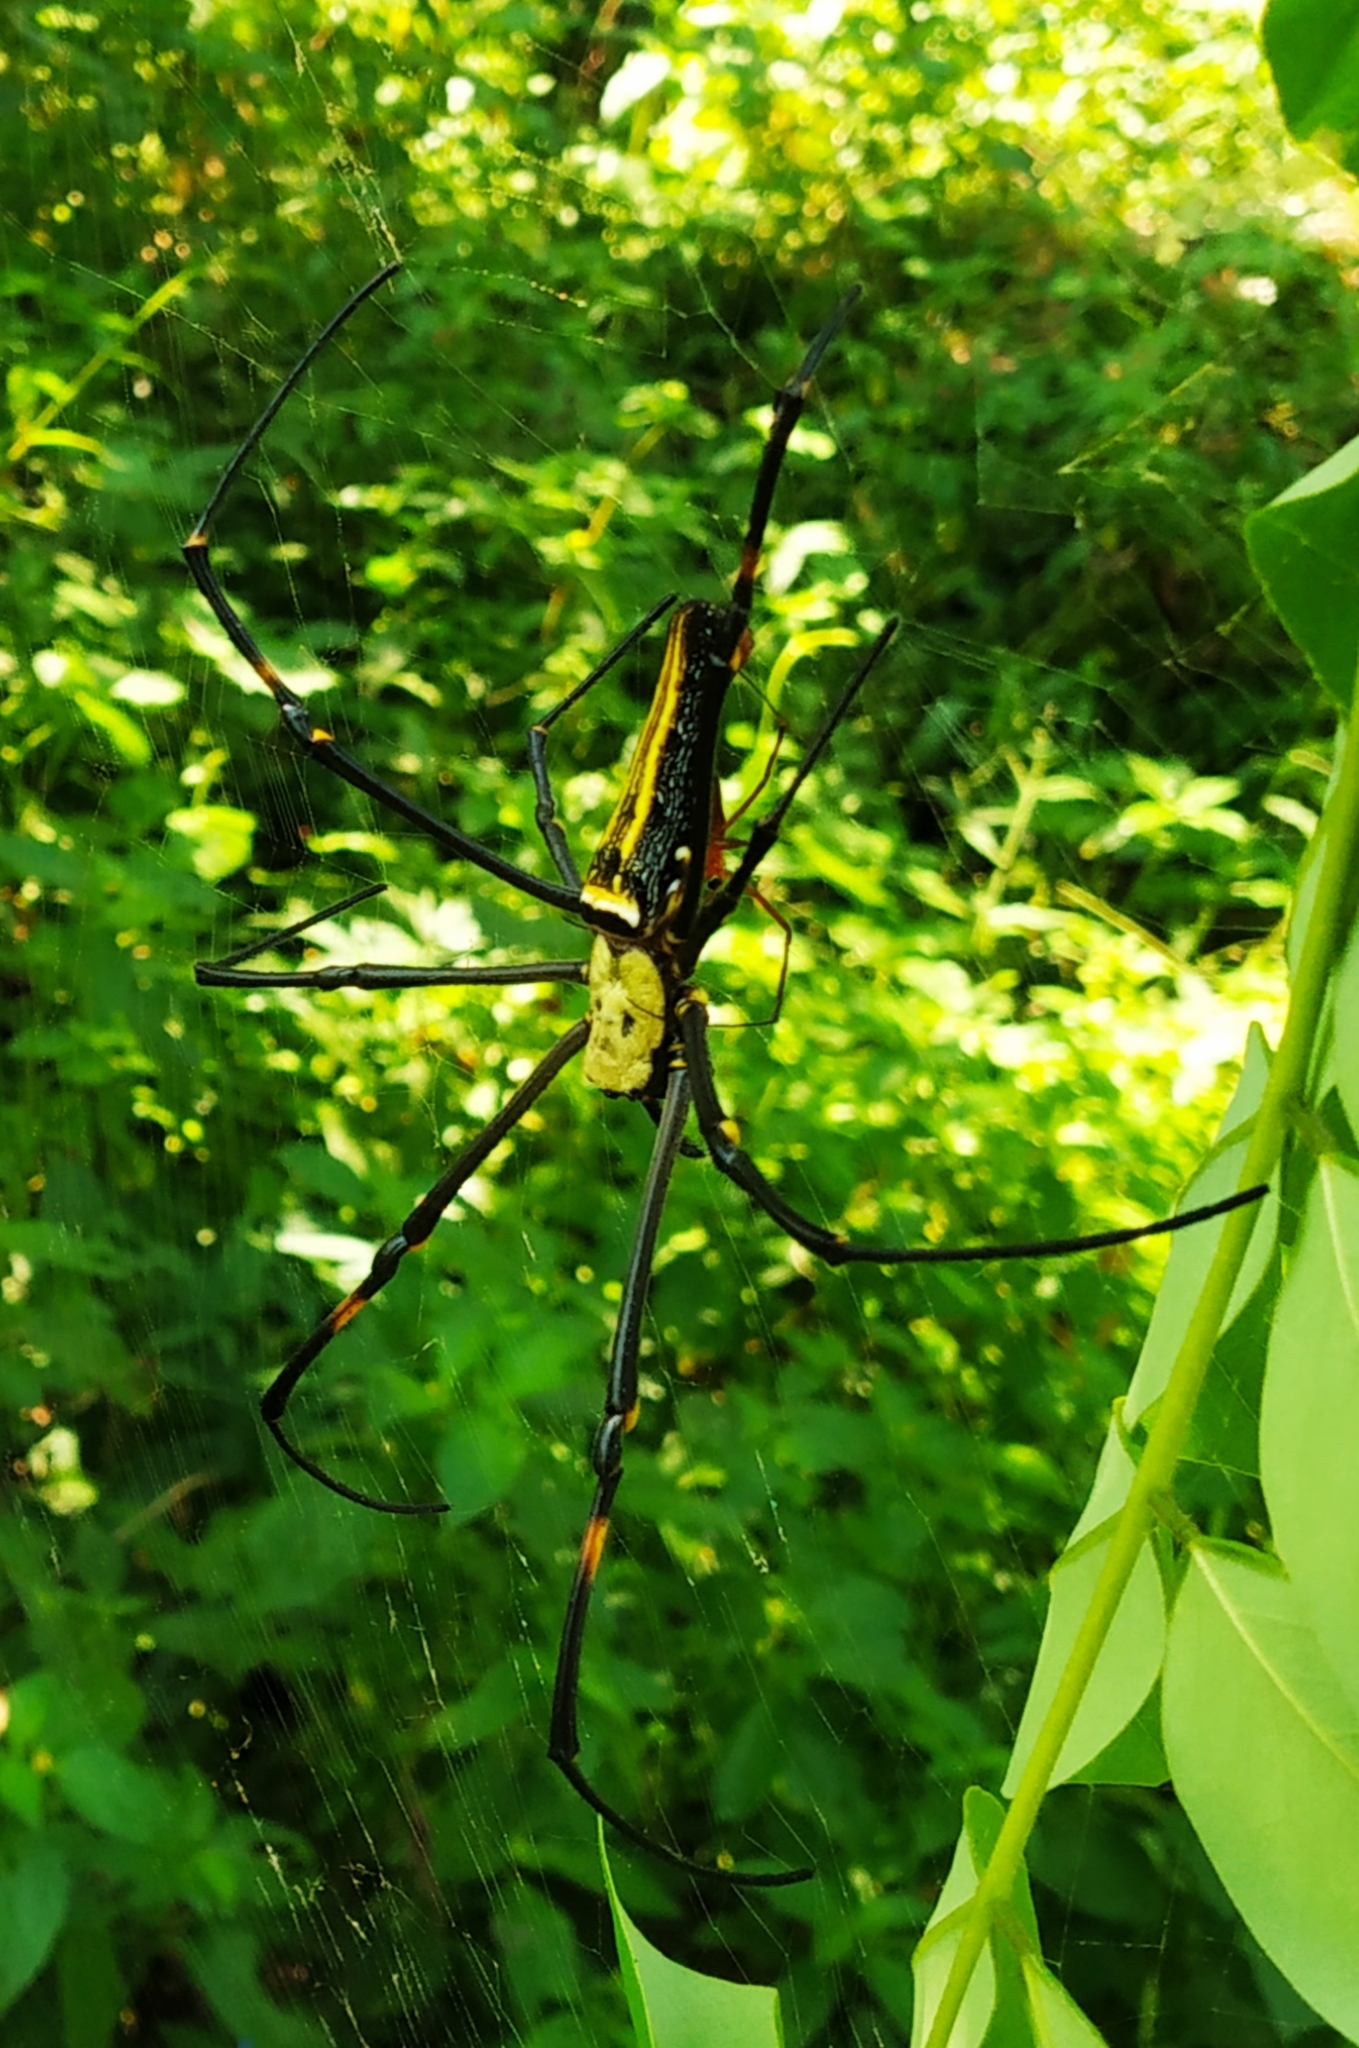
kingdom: Animalia
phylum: Arthropoda
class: Arachnida
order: Araneae
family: Araneidae
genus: Nephila
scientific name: Nephila pilipes
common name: Giant golden orb weaver
